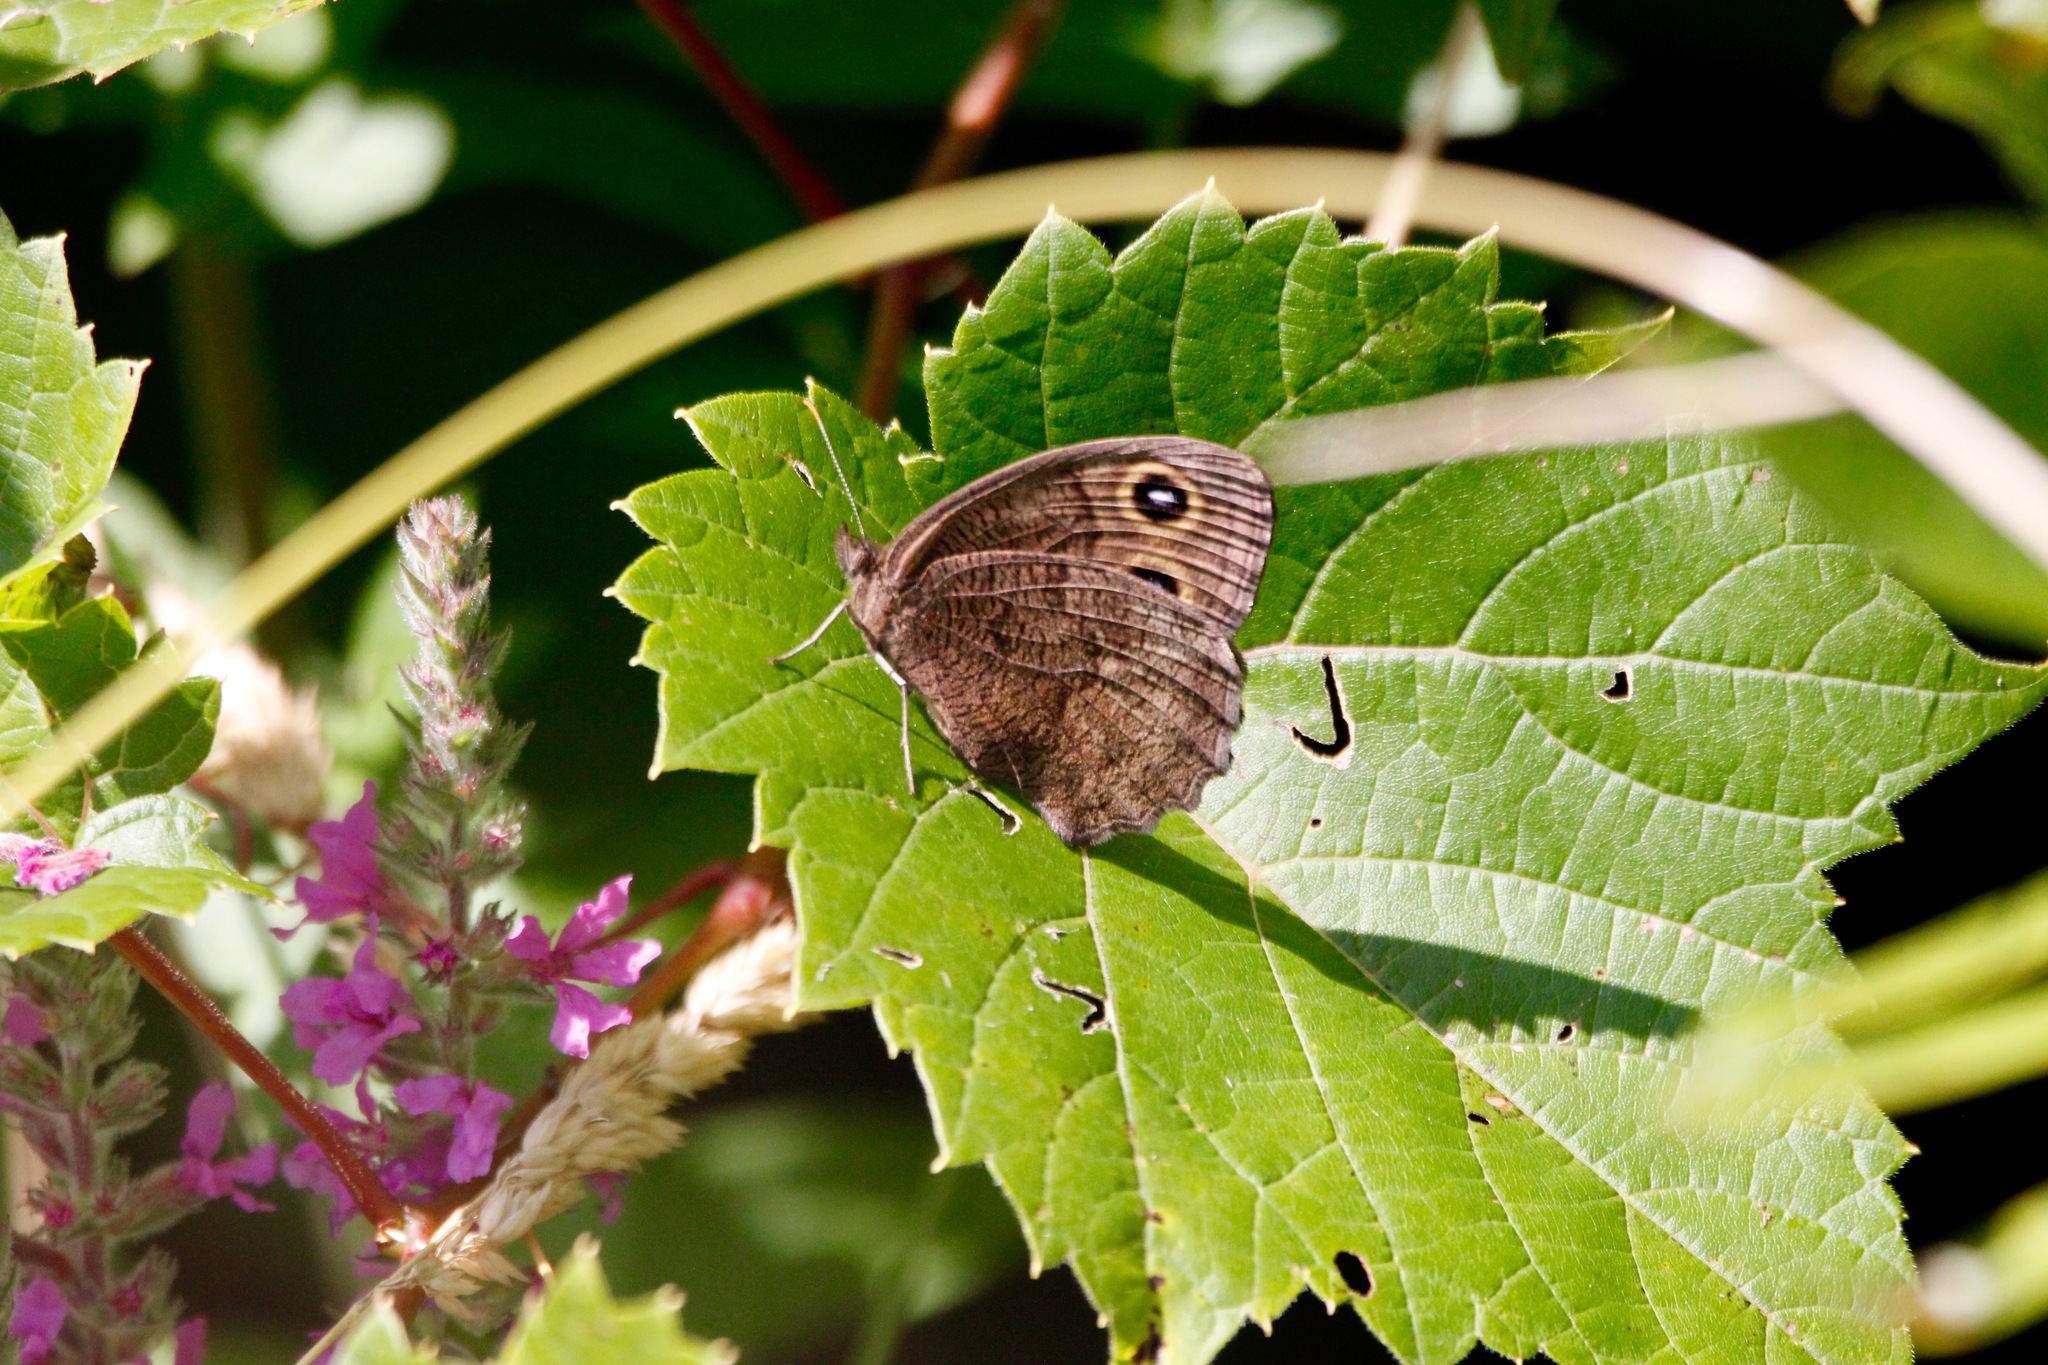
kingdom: Animalia
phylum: Arthropoda
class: Insecta
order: Lepidoptera
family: Nymphalidae
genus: Cercyonis
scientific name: Cercyonis pegala
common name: Common wood-nymph
